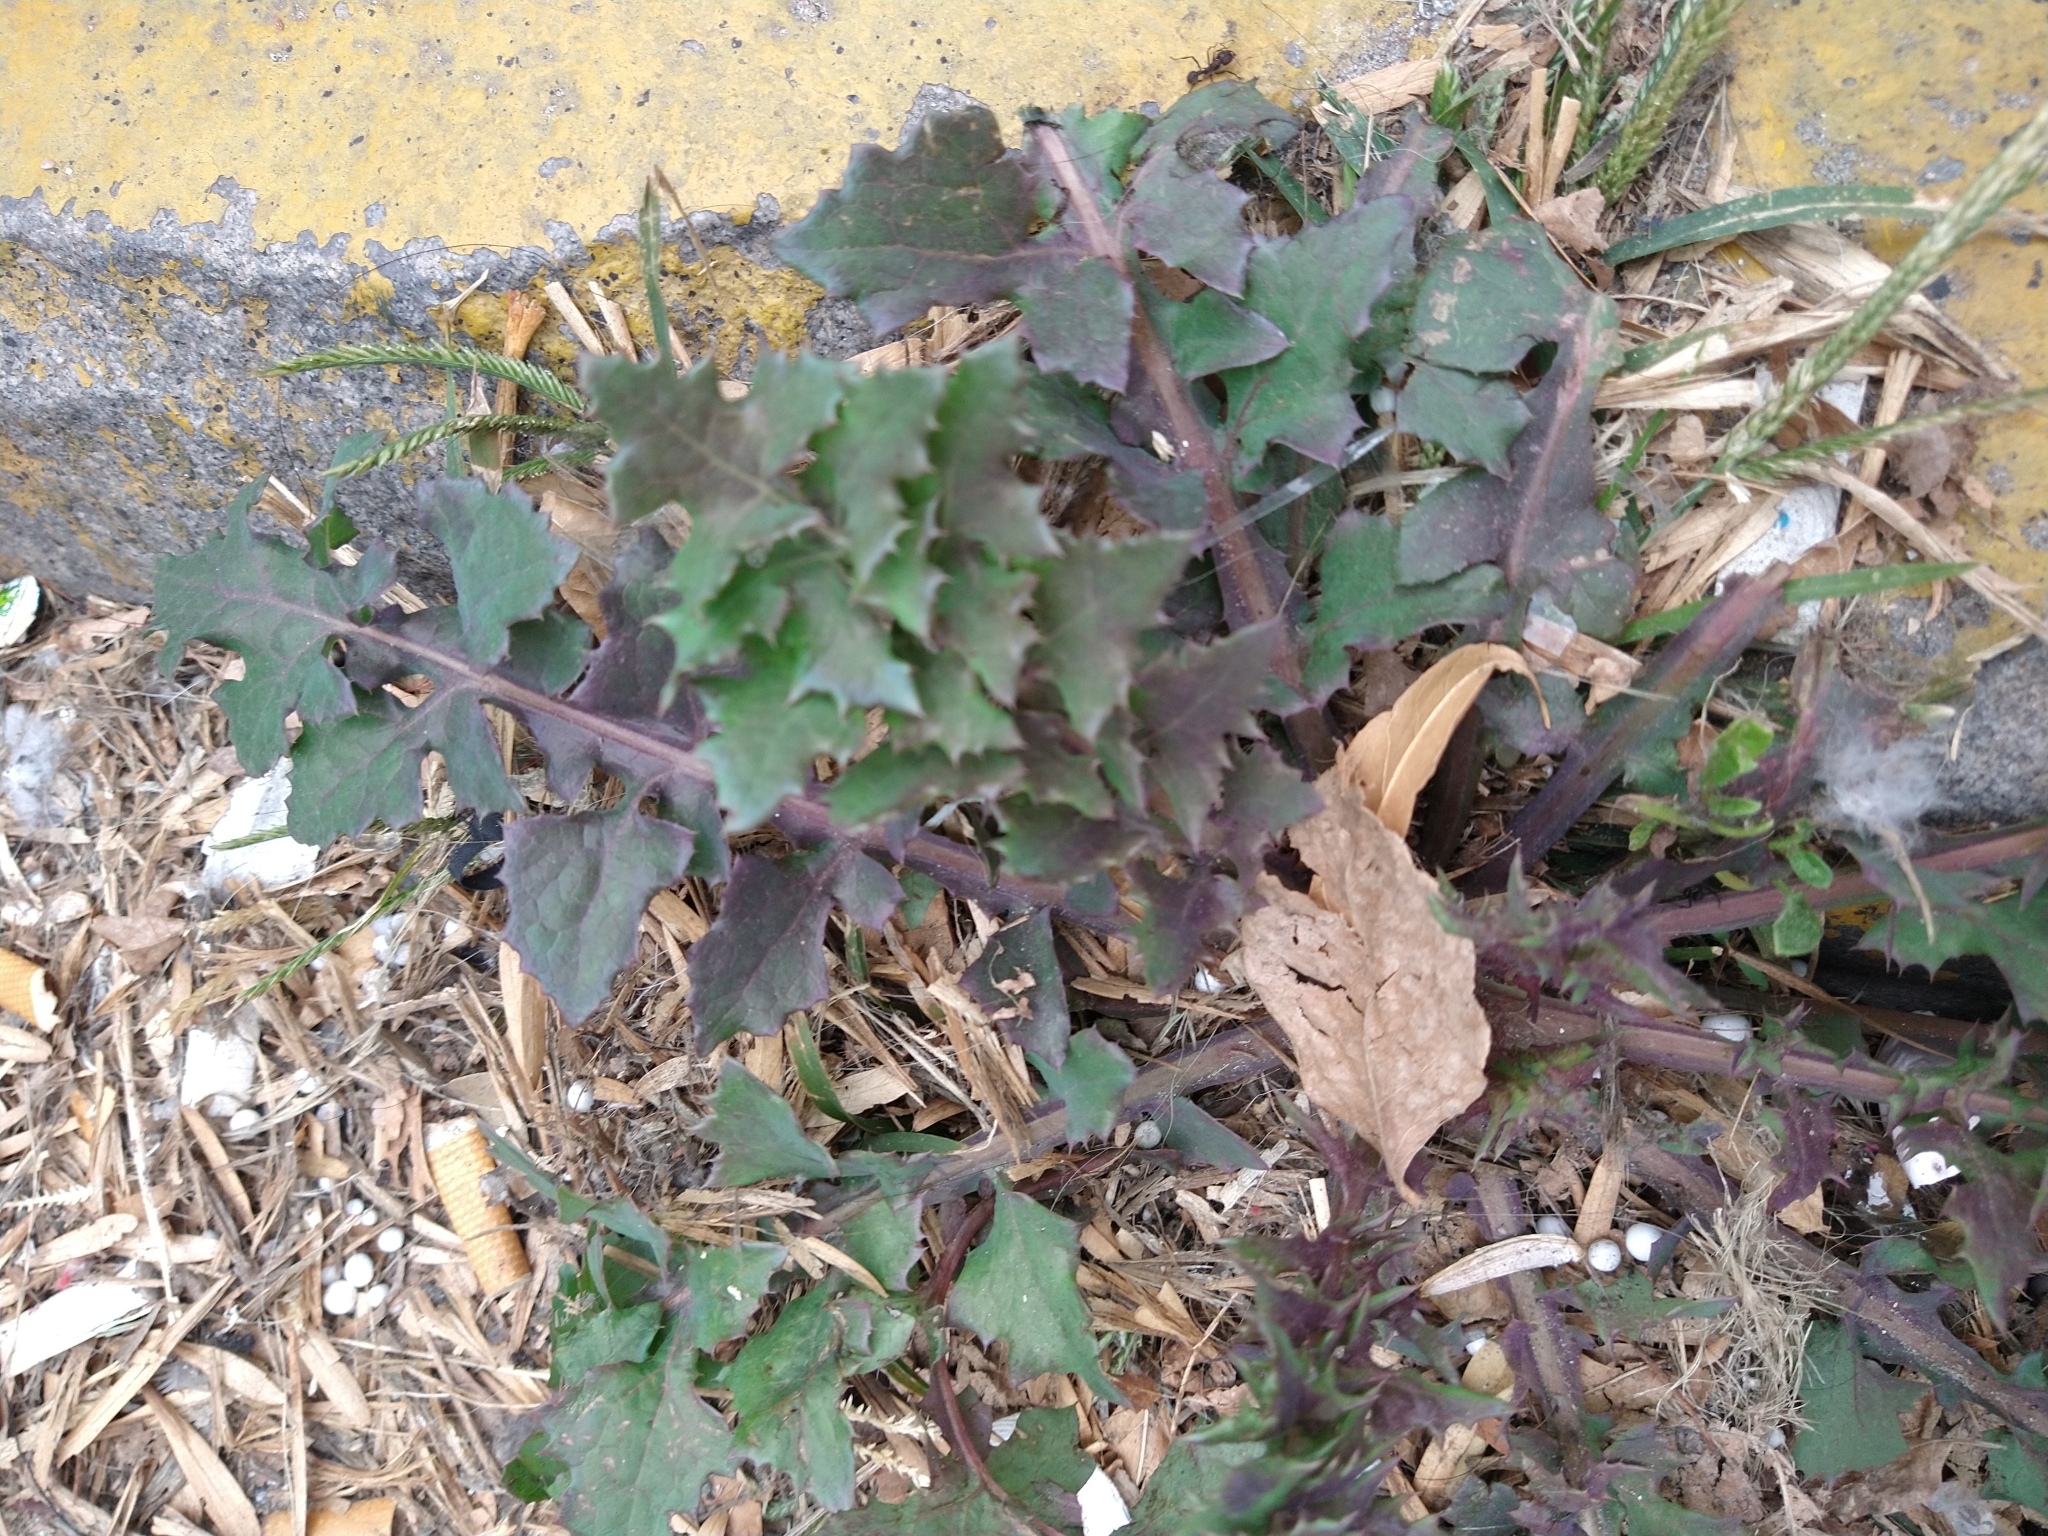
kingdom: Plantae
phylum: Tracheophyta
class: Magnoliopsida
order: Asterales
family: Asteraceae
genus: Sonchus
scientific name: Sonchus oleraceus
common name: Common sowthistle
